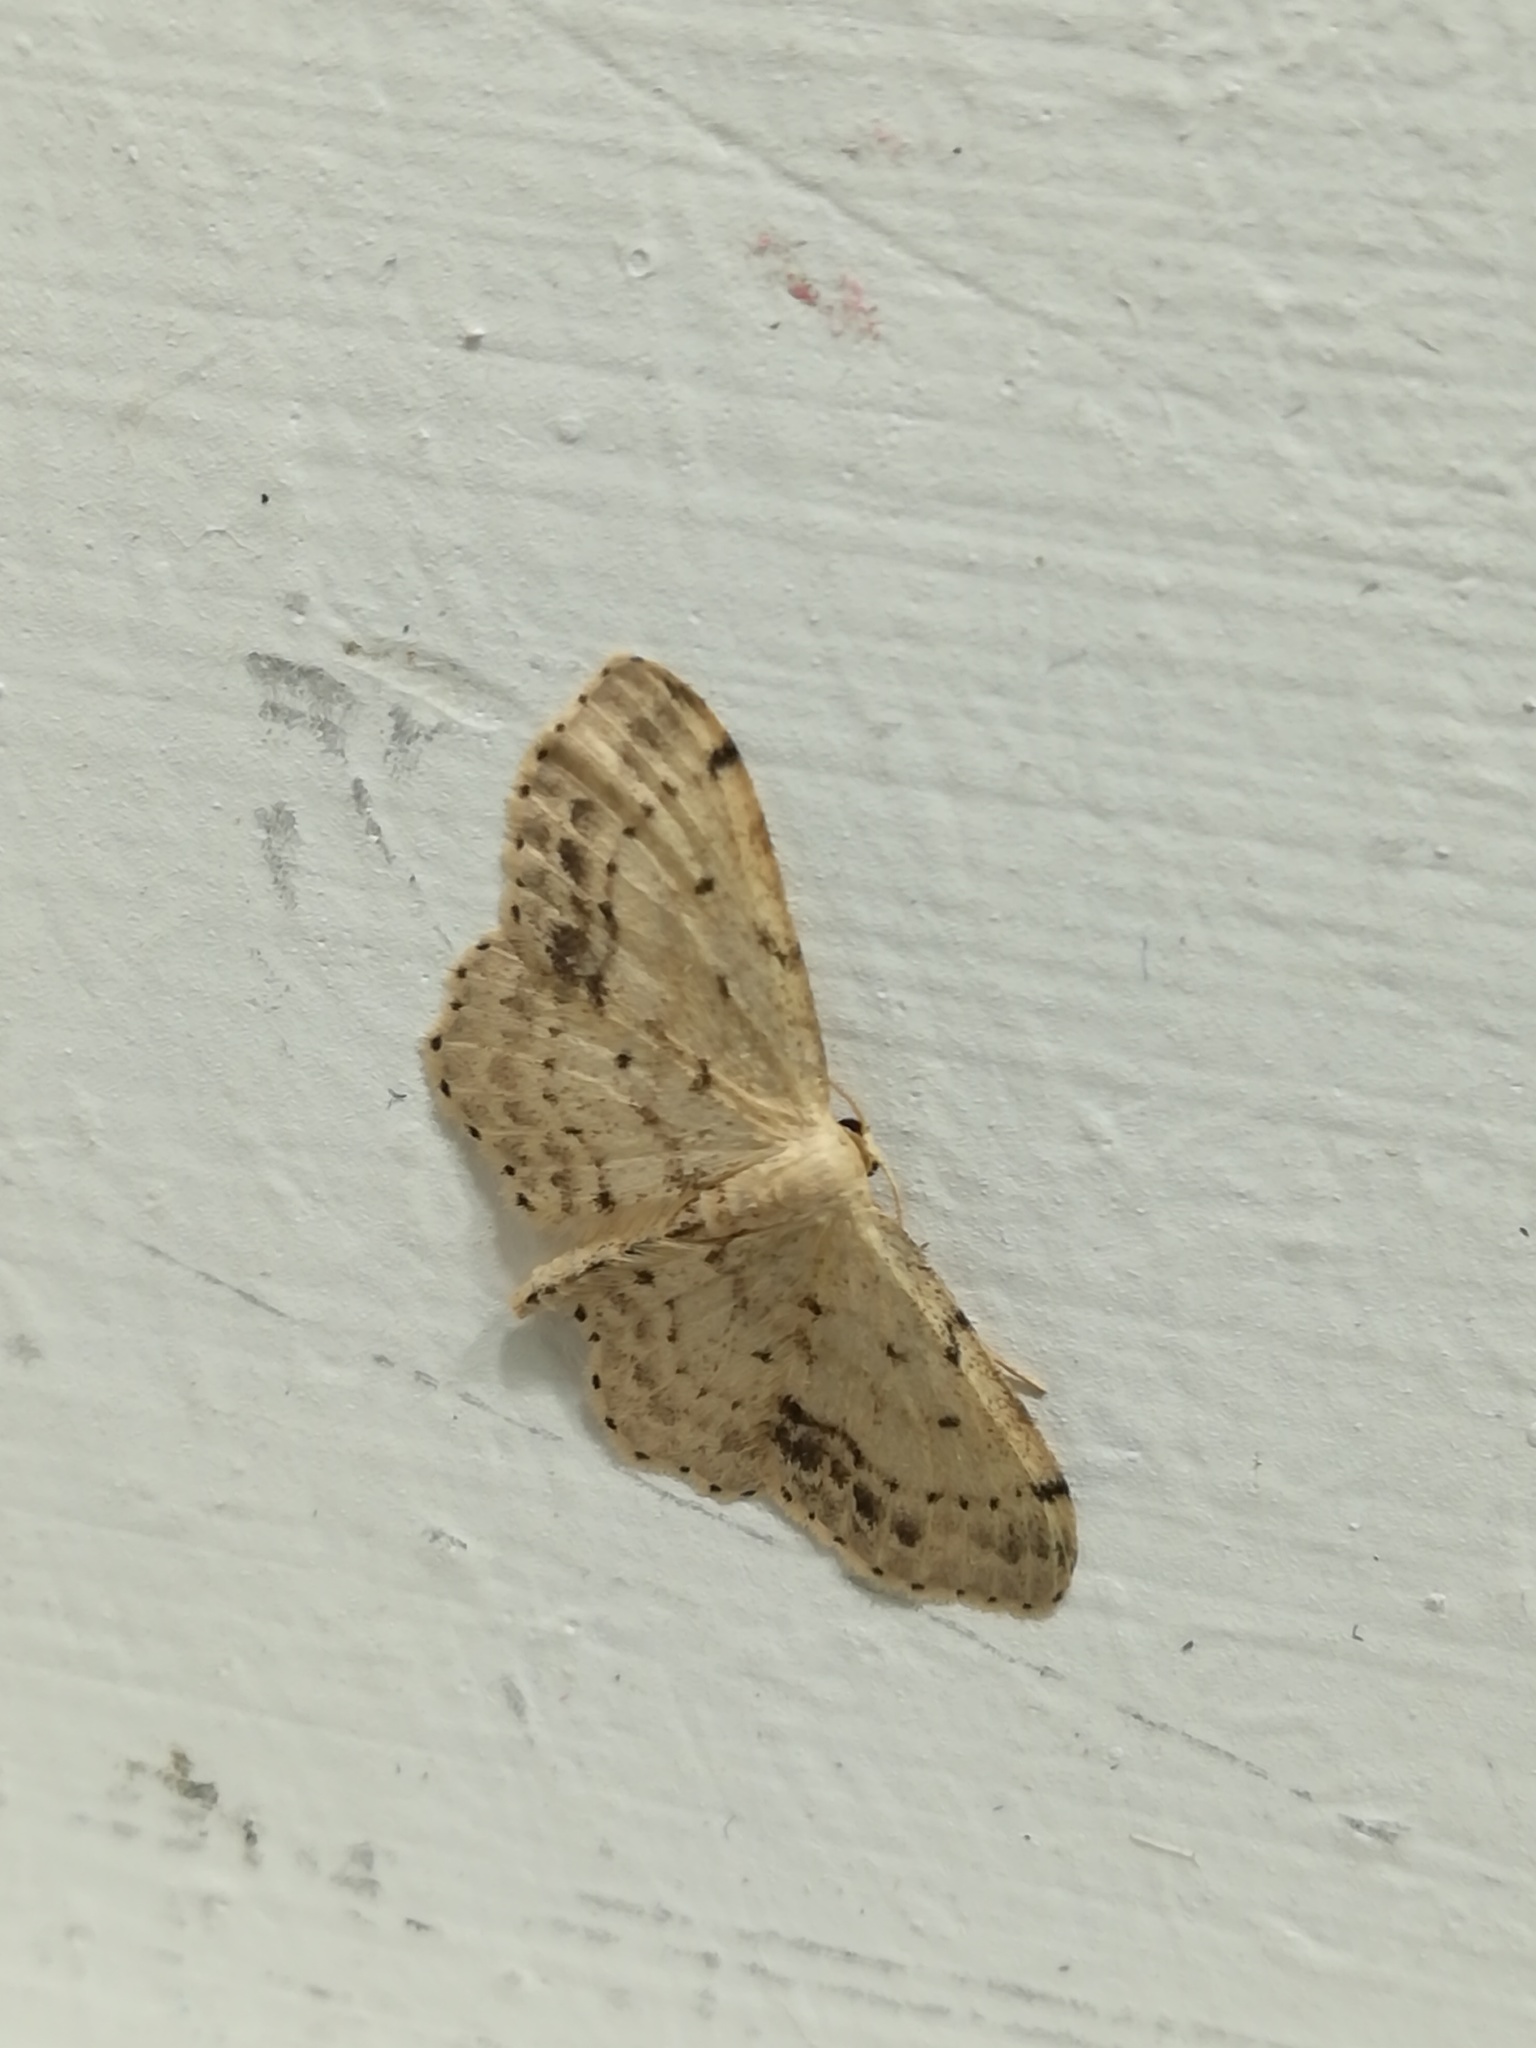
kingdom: Animalia
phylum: Arthropoda
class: Insecta
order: Lepidoptera
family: Geometridae
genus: Idaea
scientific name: Idaea dimidiata
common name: Single-dotted wave
